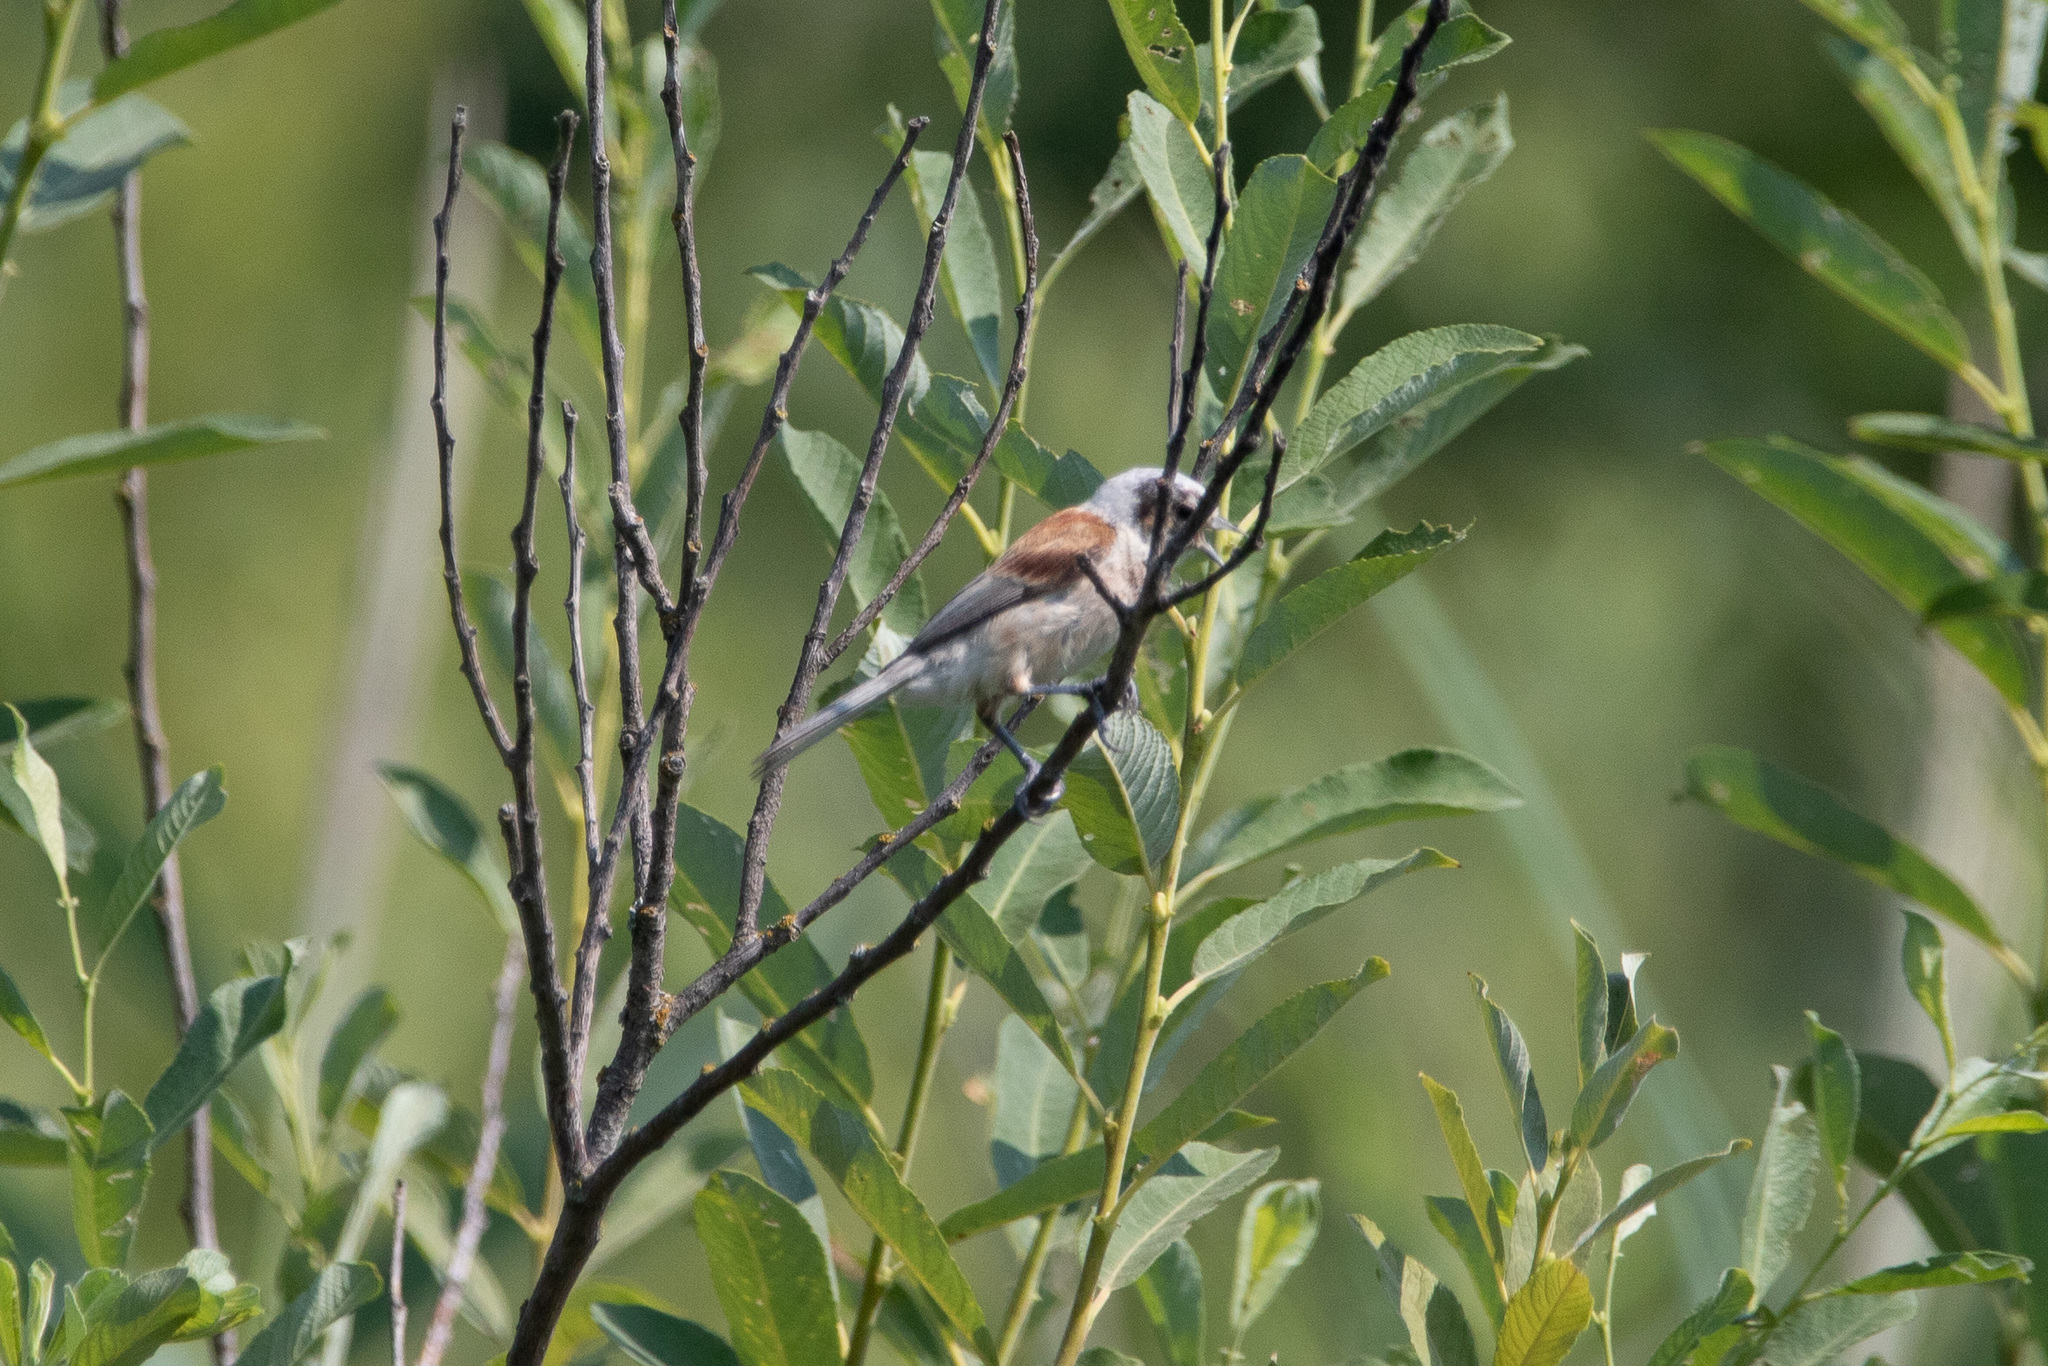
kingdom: Animalia
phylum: Chordata
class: Aves
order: Passeriformes
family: Remizidae
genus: Remiz
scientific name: Remiz pendulinus
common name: Eurasian penduline tit
